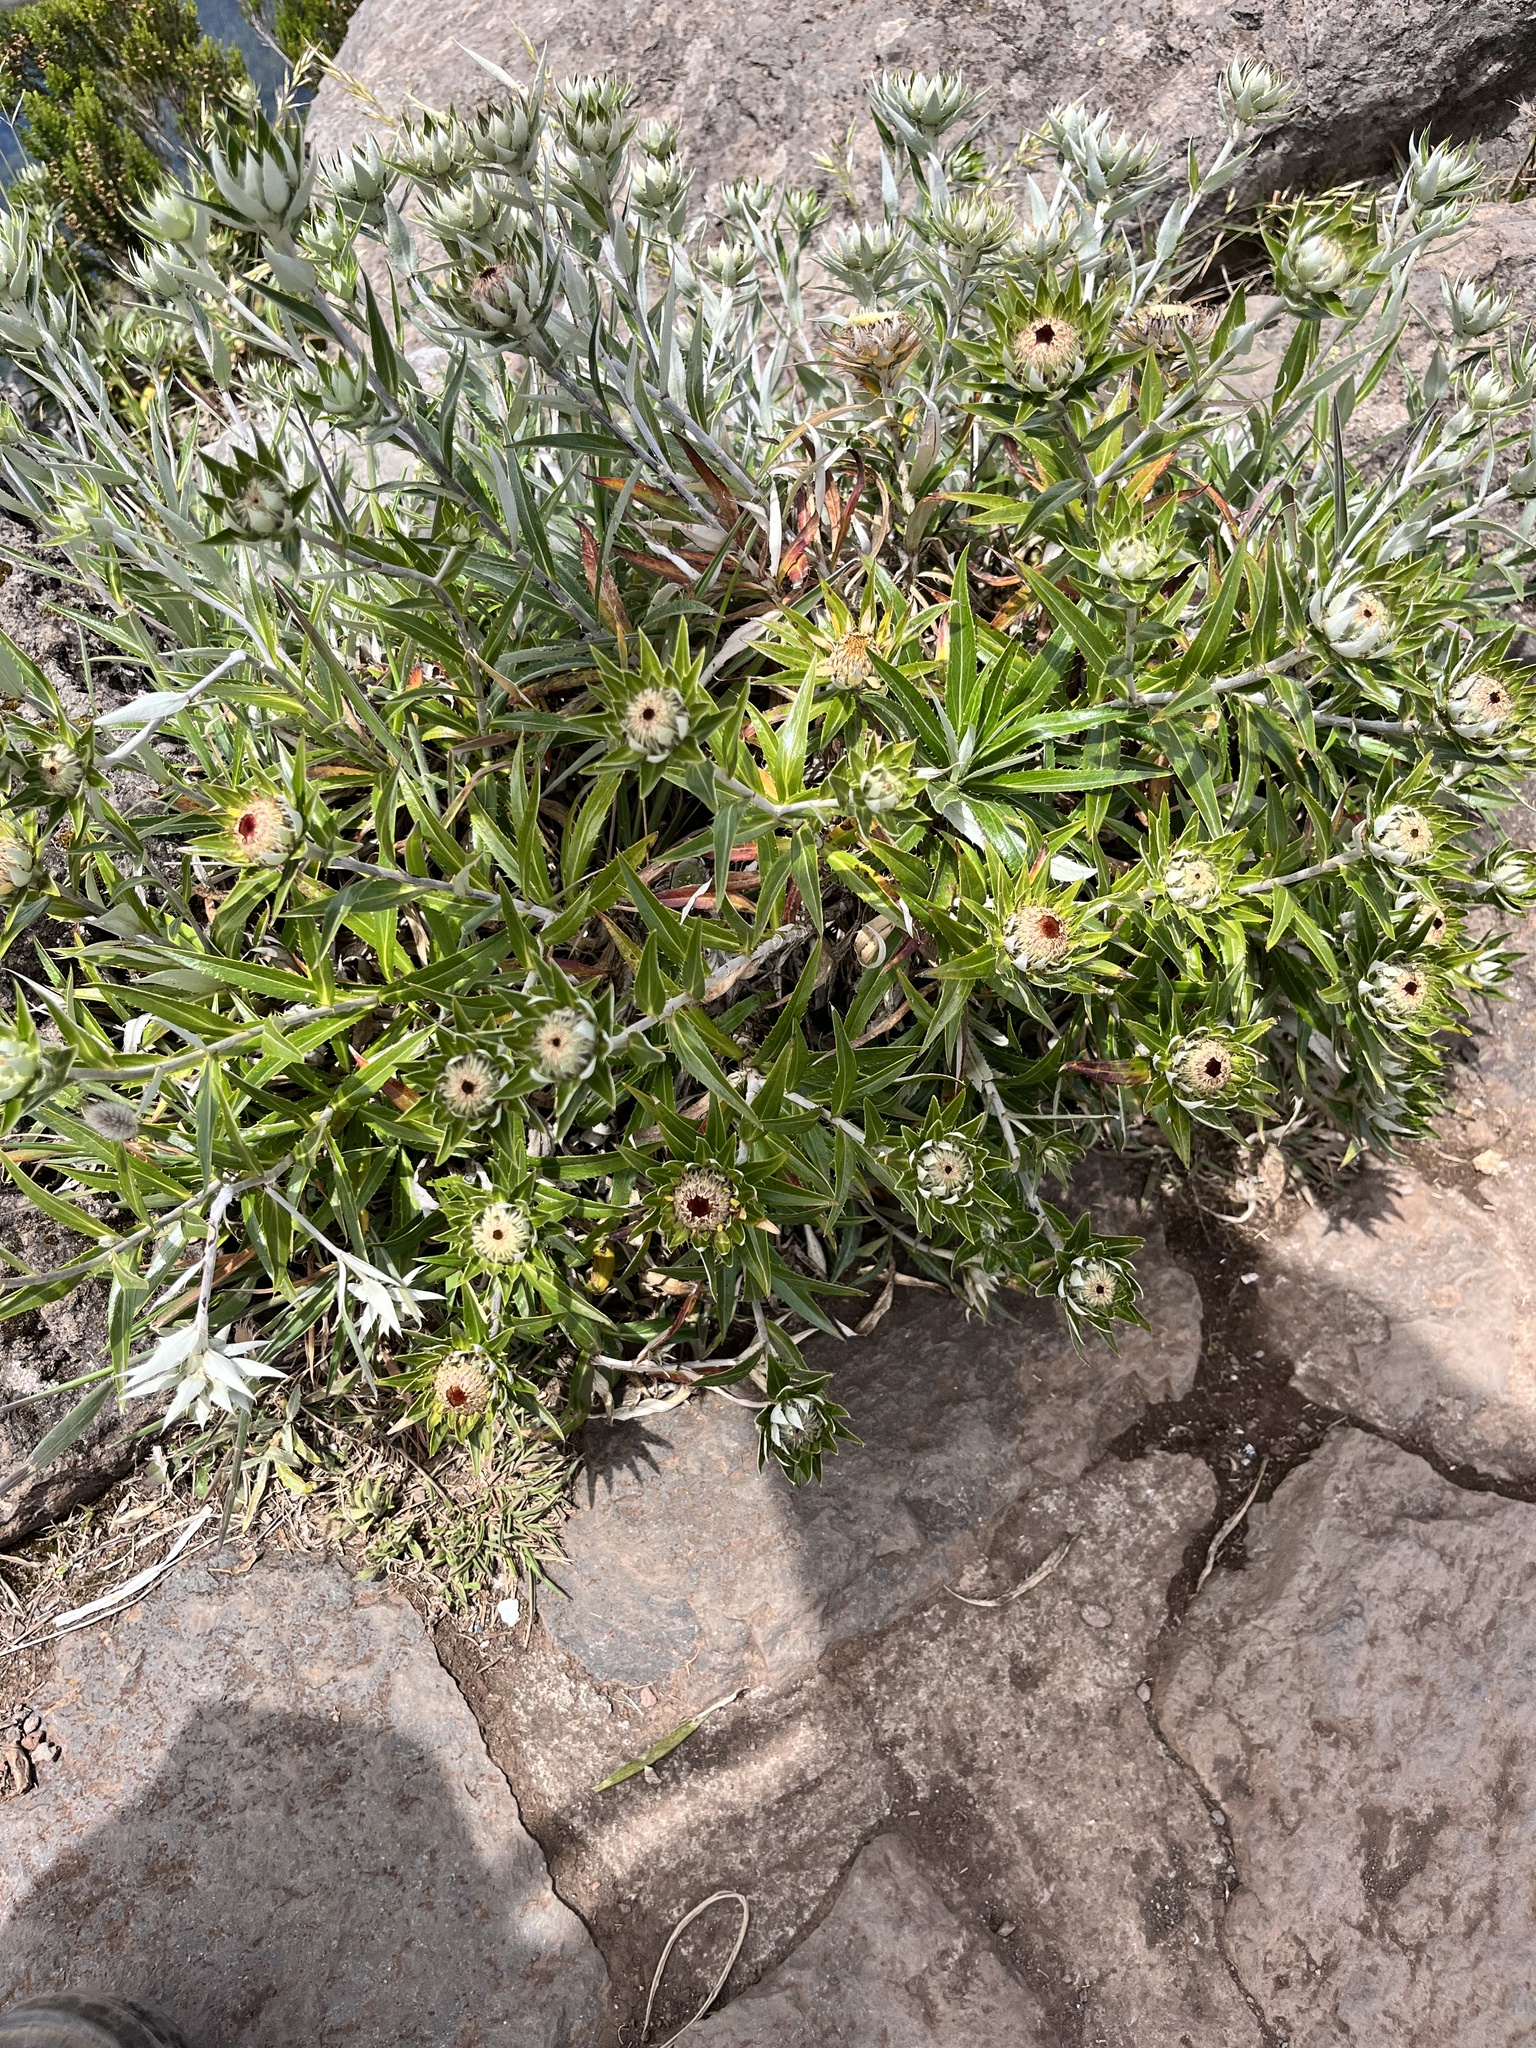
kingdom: Plantae
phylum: Tracheophyta
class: Magnoliopsida
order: Asterales
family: Asteraceae
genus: Carlina
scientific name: Carlina salicifolia
